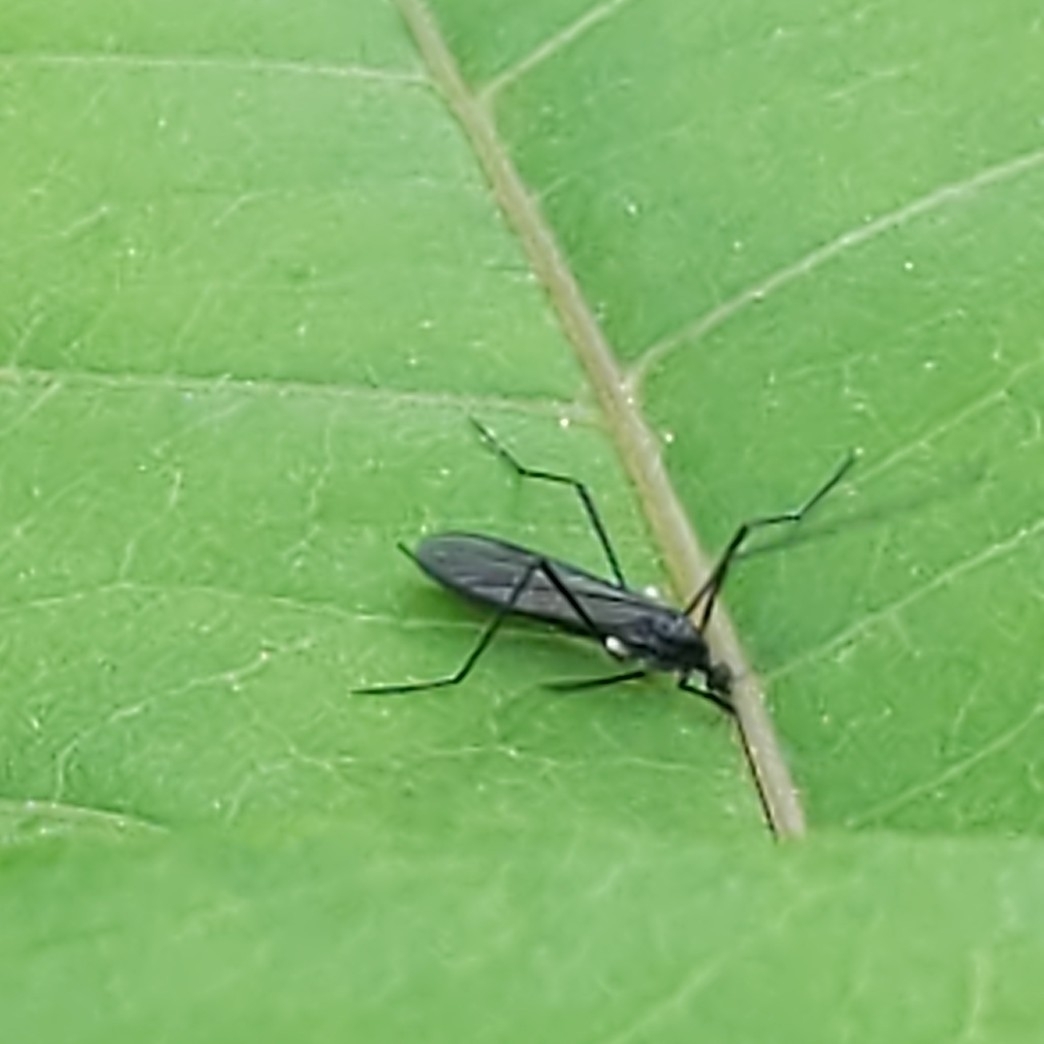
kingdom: Animalia
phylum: Arthropoda
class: Insecta
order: Diptera
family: Limoniidae
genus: Gnophomyia
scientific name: Gnophomyia tristissima
